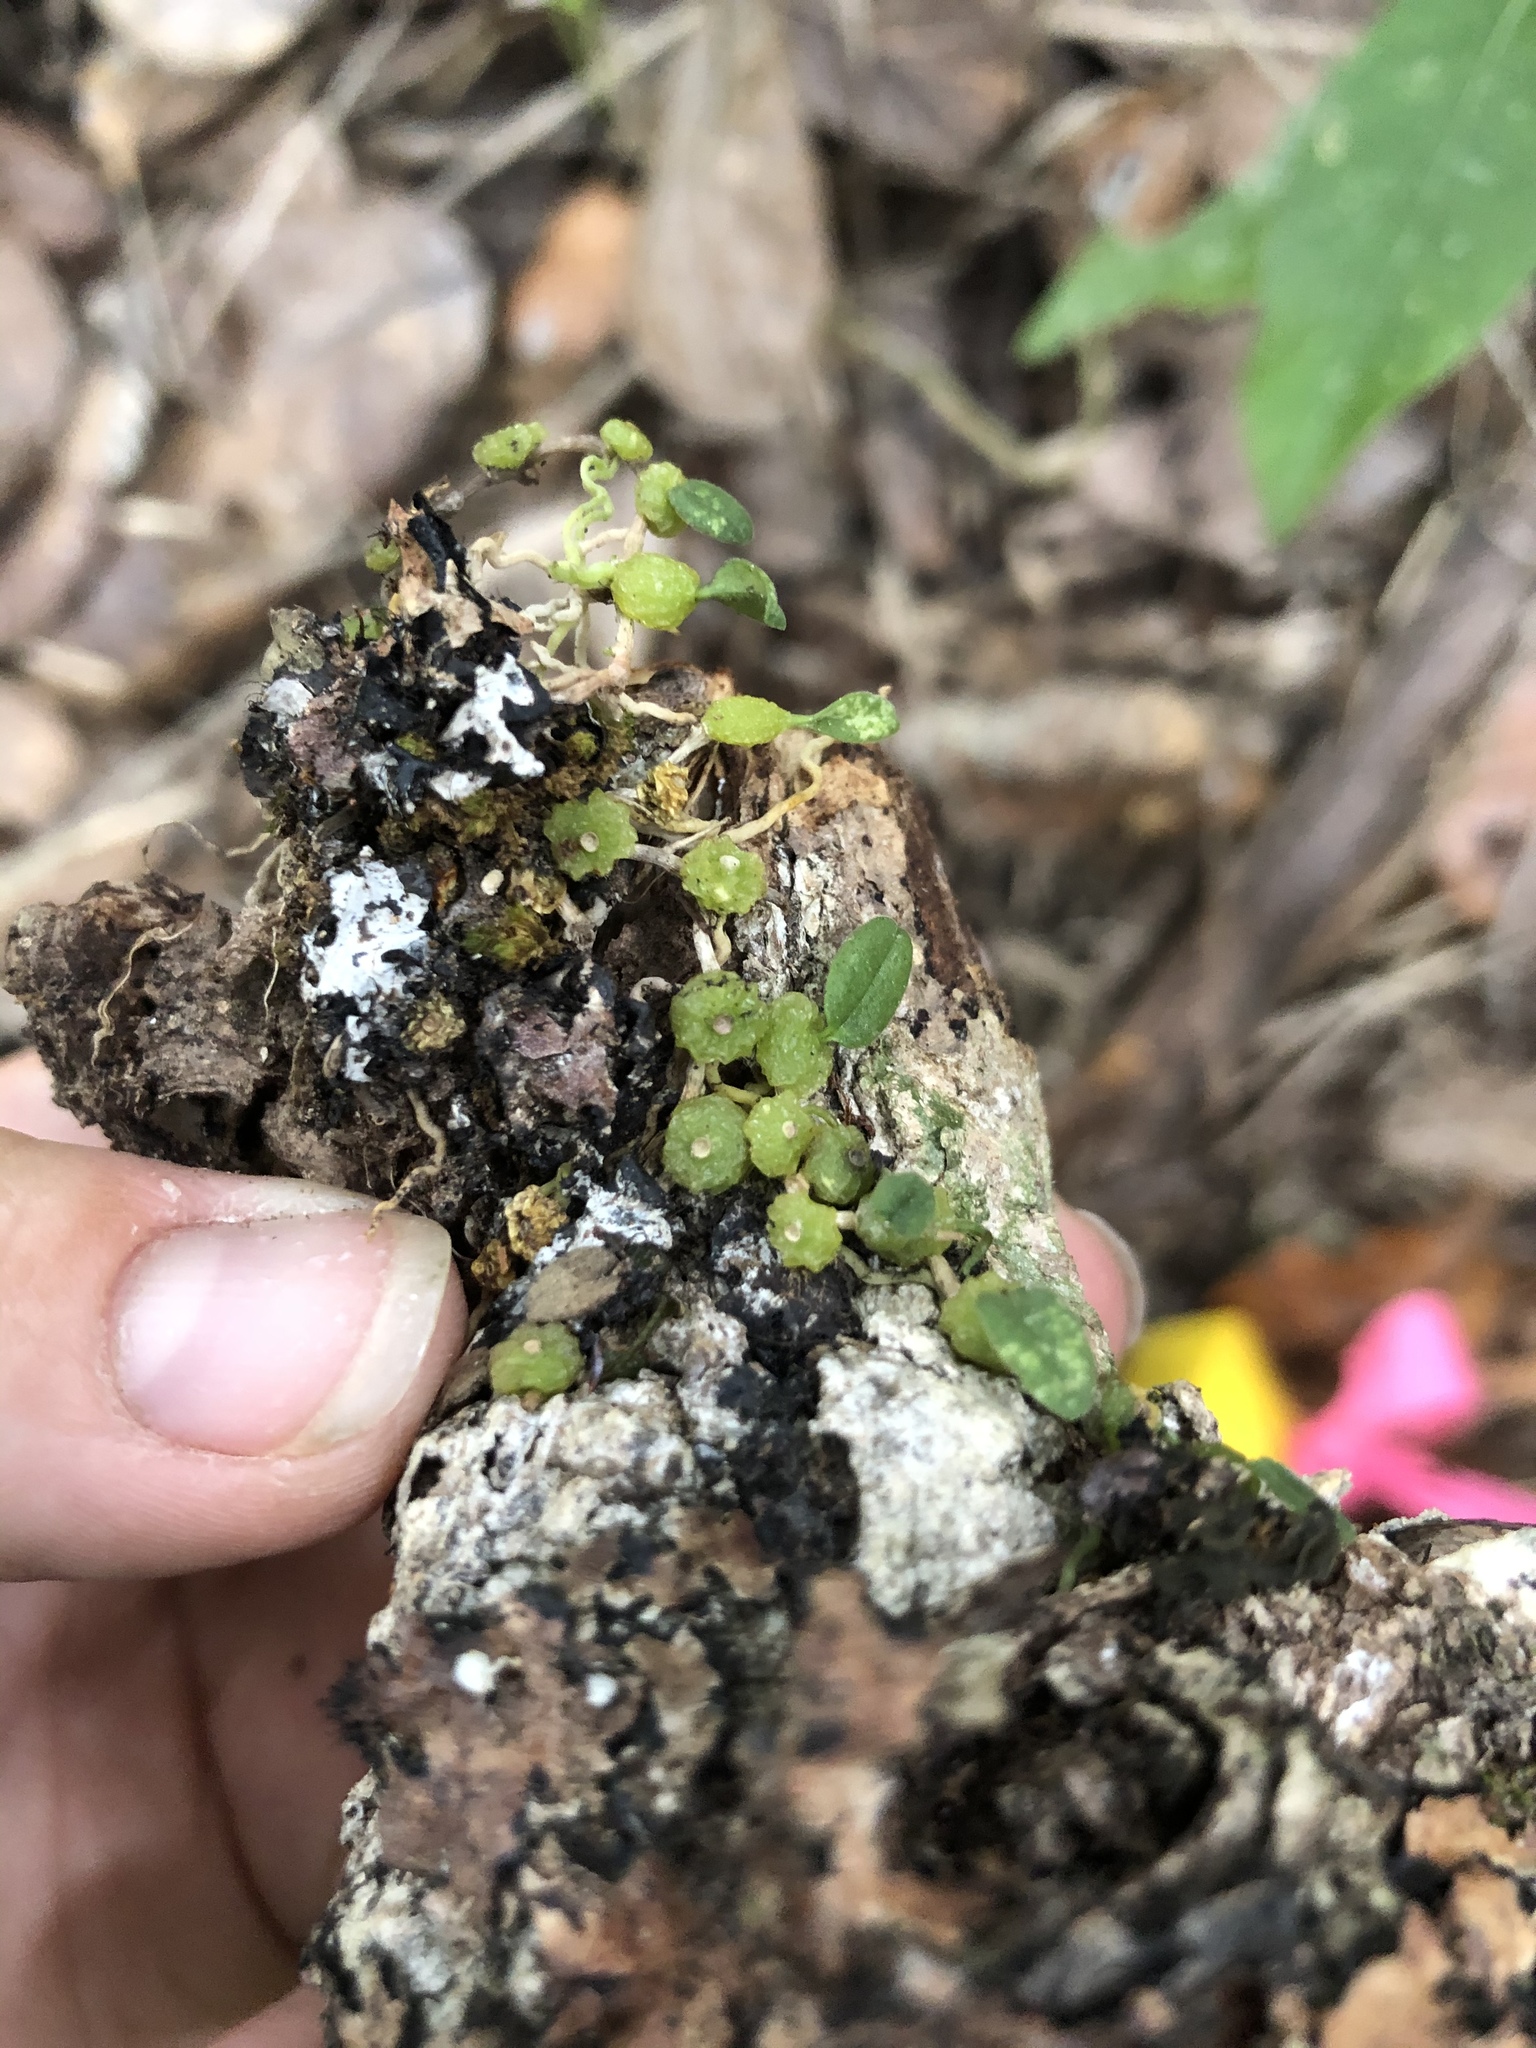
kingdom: Plantae
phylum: Tracheophyta
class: Liliopsida
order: Asparagales
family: Orchidaceae
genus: Bulbophyllum
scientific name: Bulbophyllum pygmaeum
